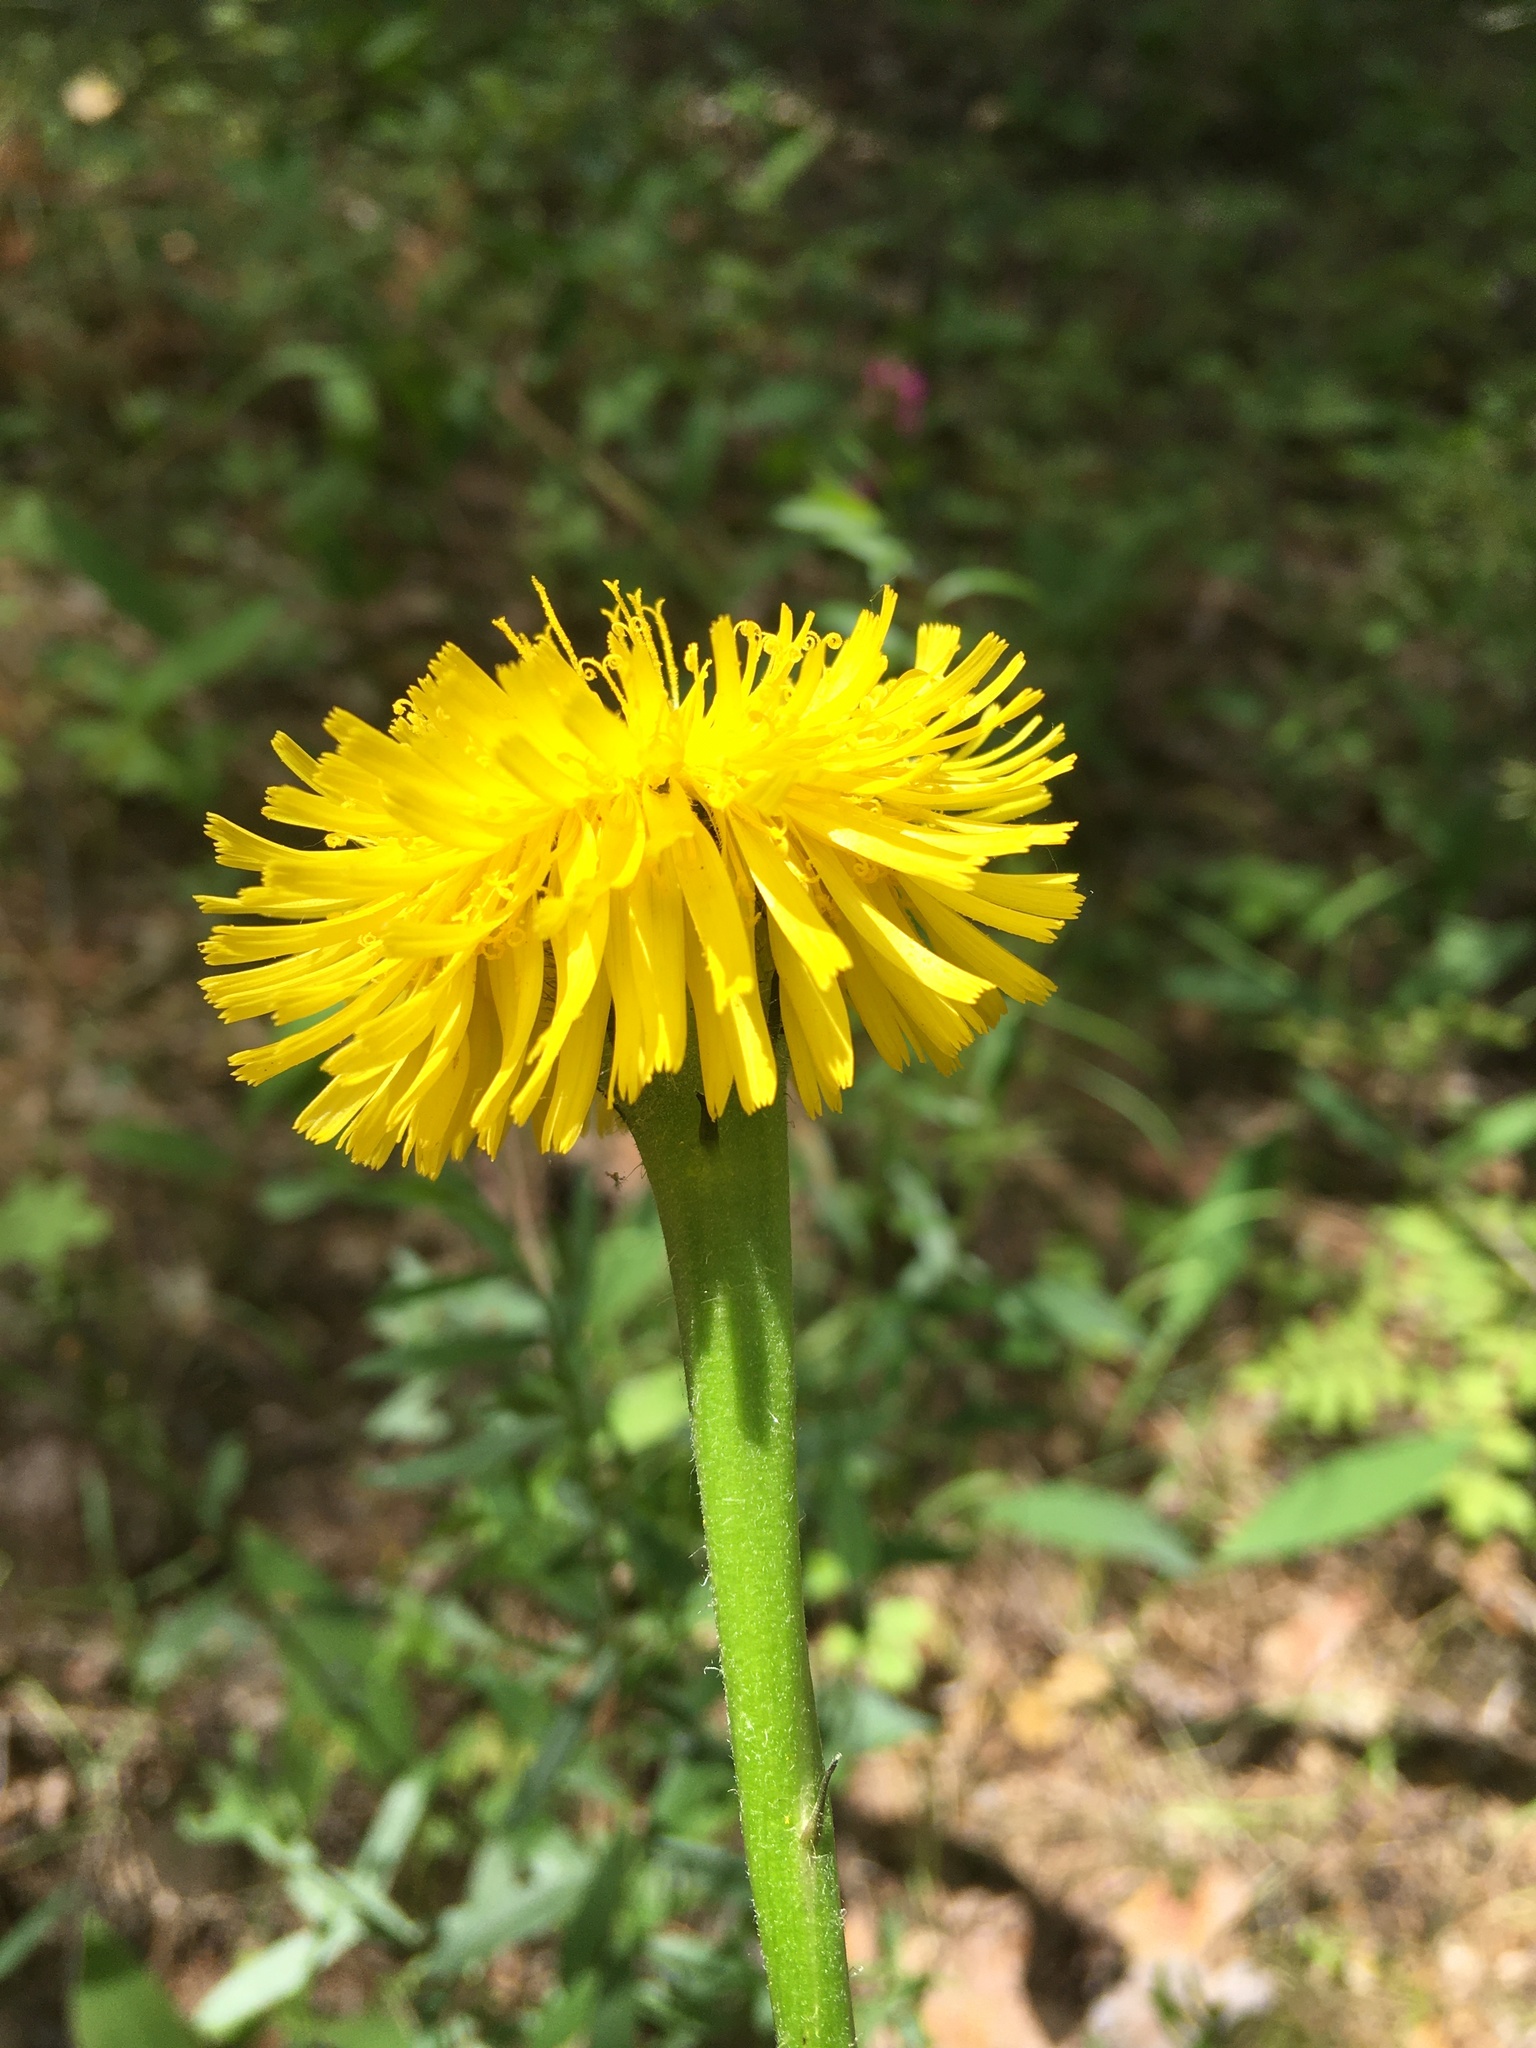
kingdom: Plantae
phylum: Tracheophyta
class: Magnoliopsida
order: Asterales
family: Asteraceae
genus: Trommsdorffia
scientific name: Trommsdorffia maculata
